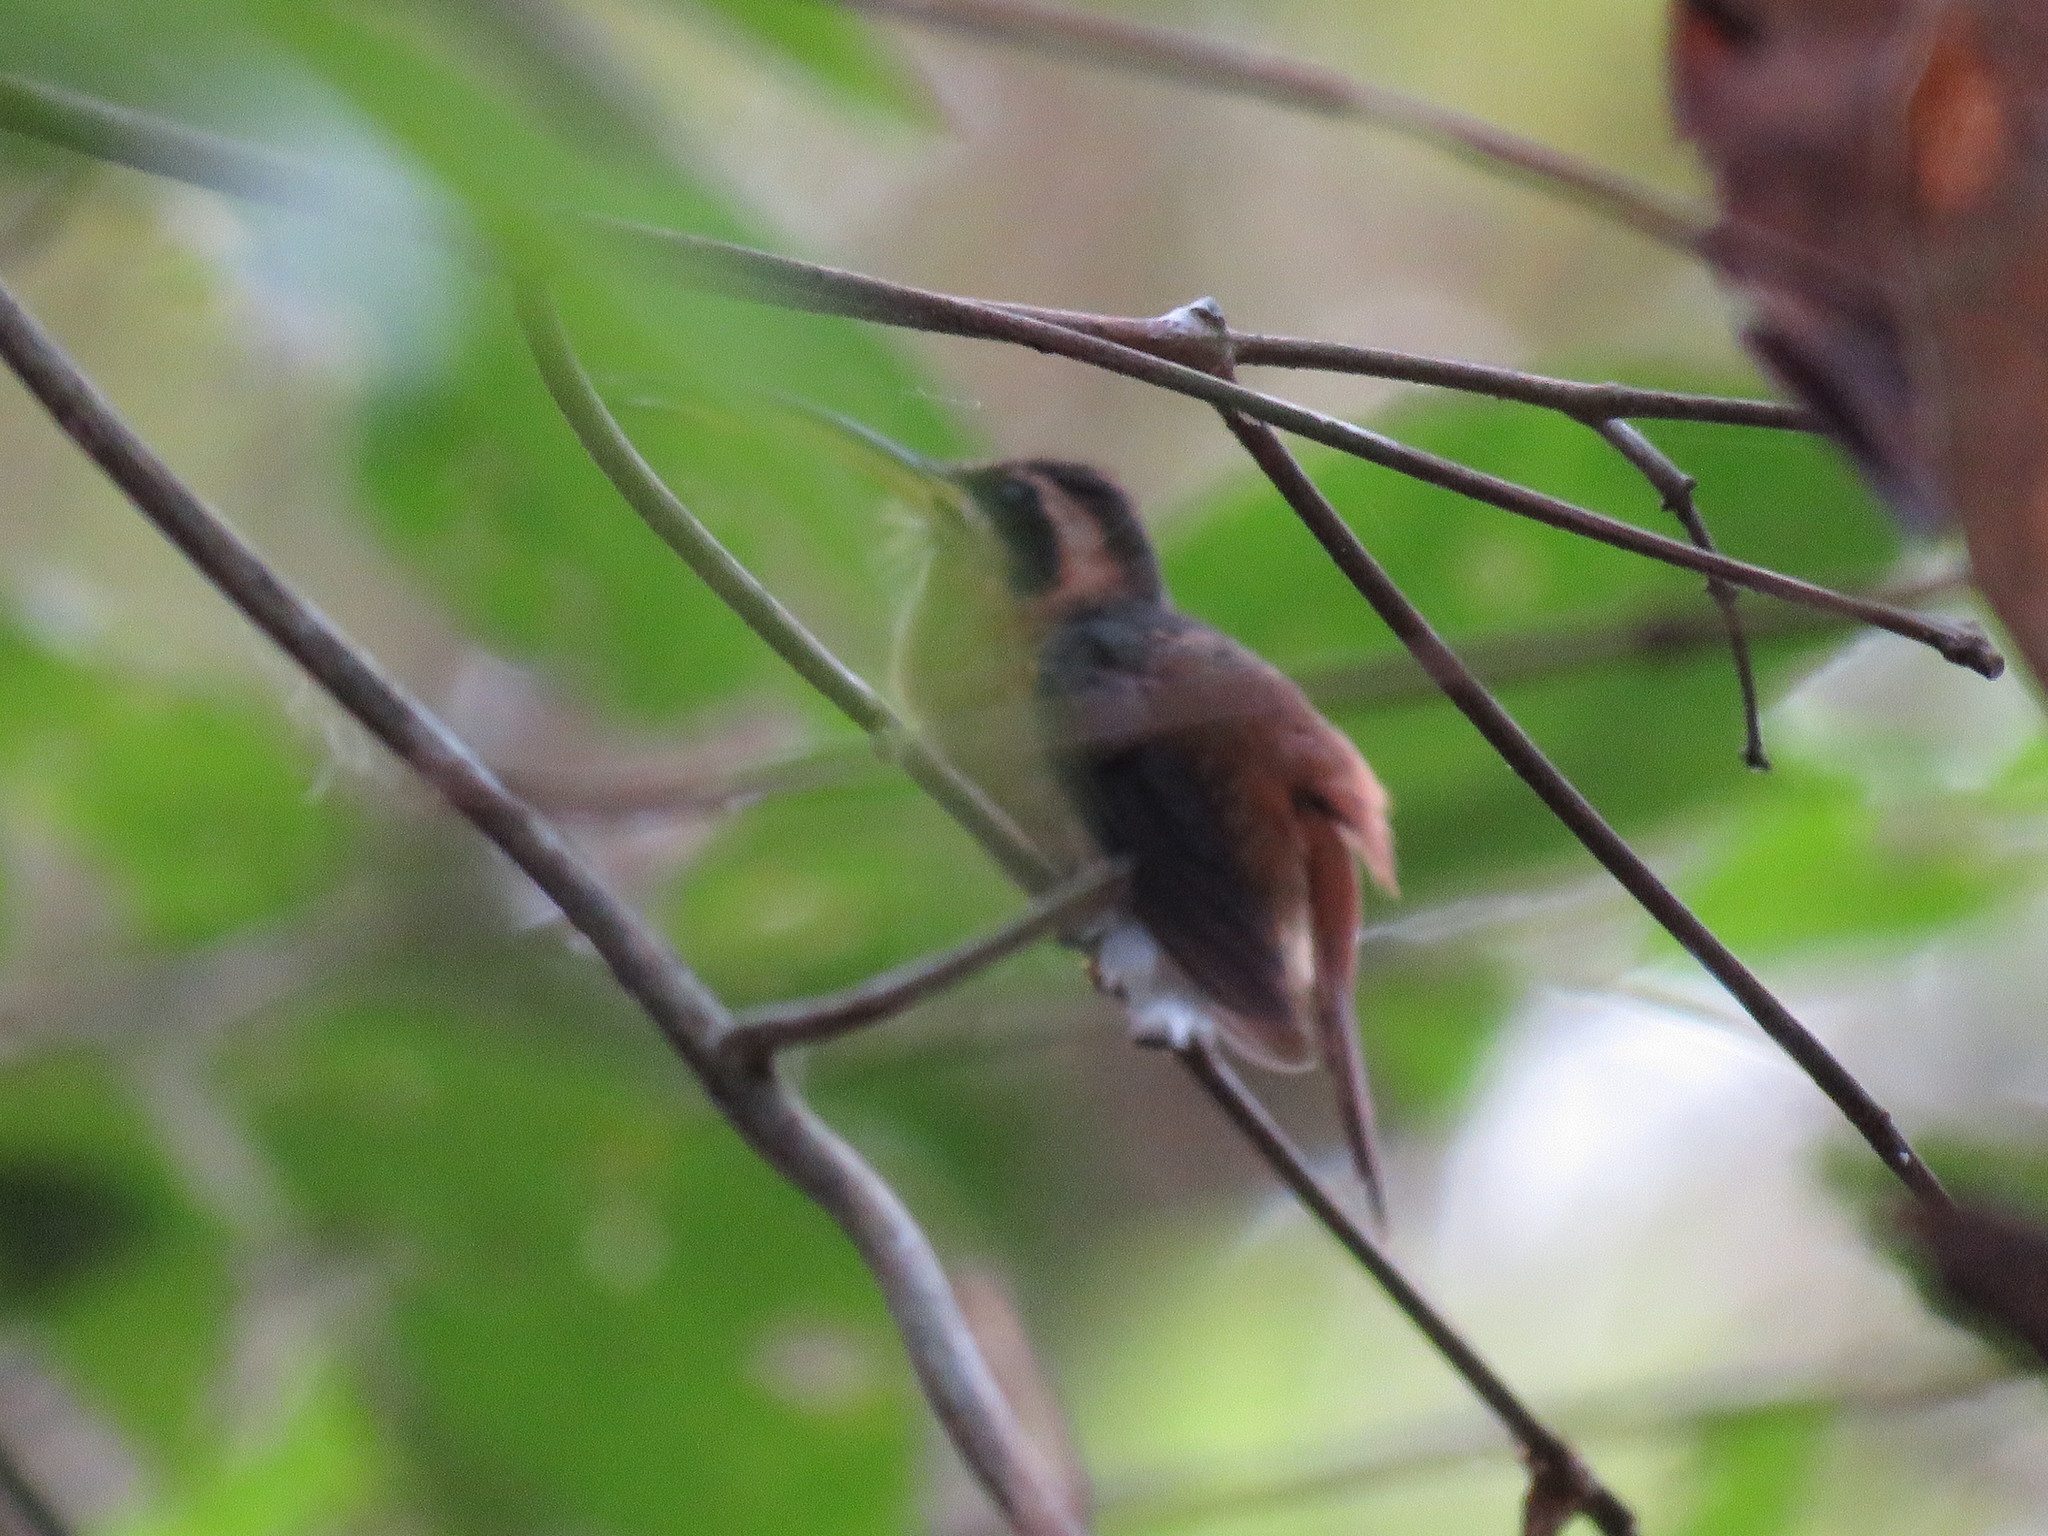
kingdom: Animalia
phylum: Chordata
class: Aves
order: Apodiformes
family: Trochilidae
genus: Phaethornis
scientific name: Phaethornis ruber
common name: Reddish hermit
